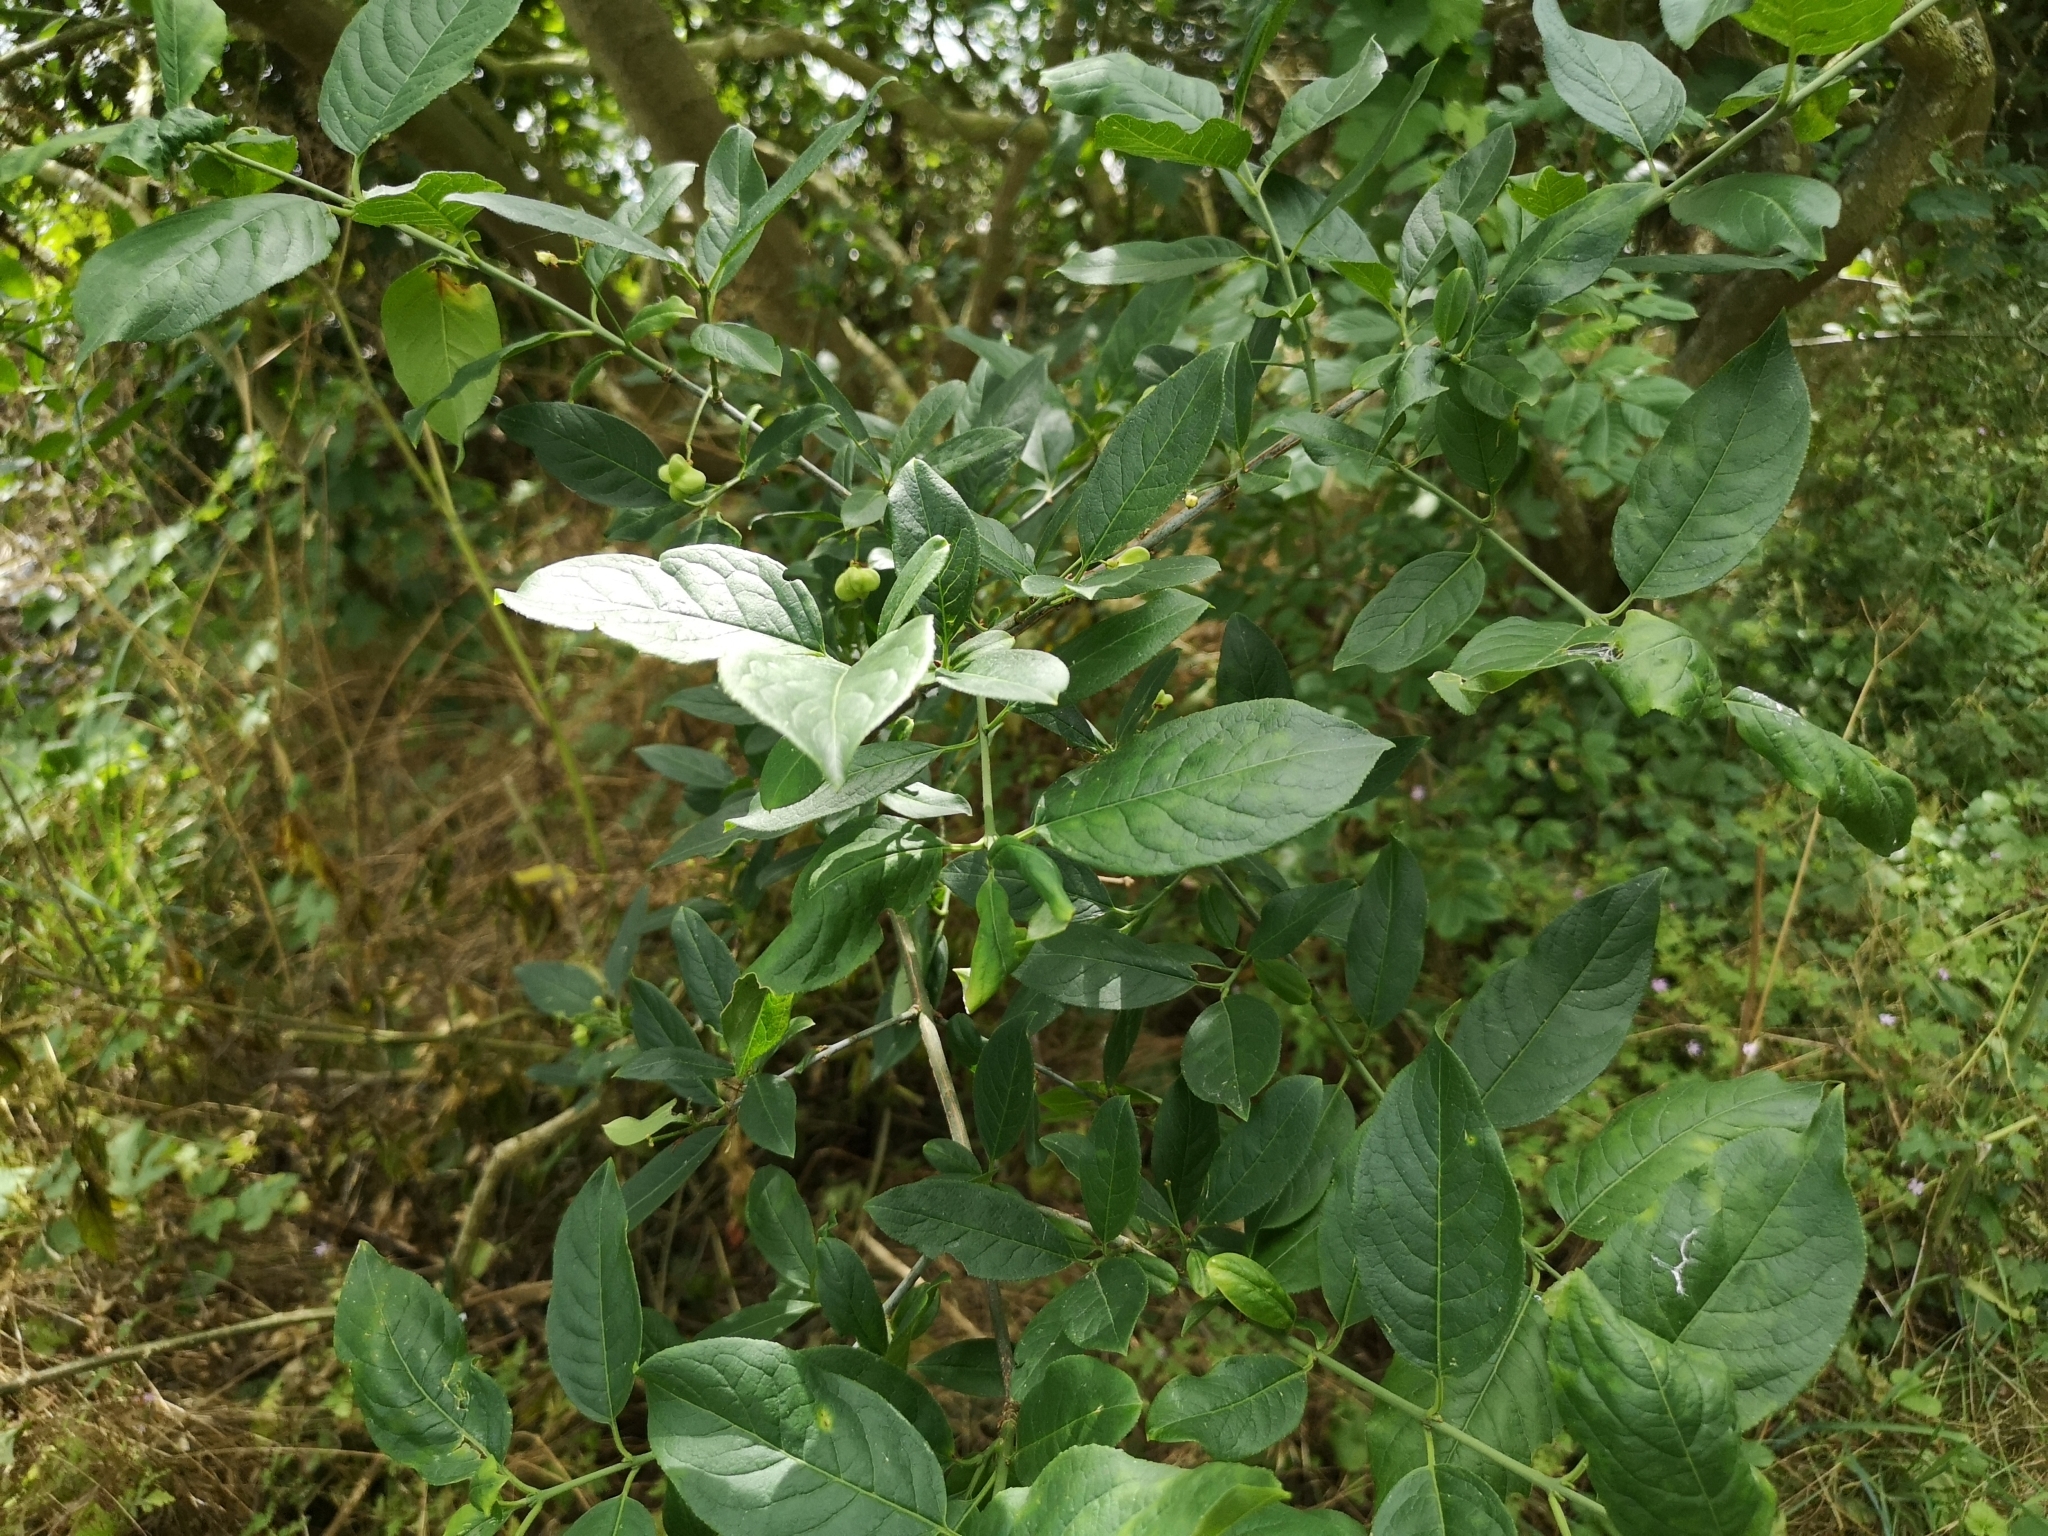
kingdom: Plantae
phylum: Tracheophyta
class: Magnoliopsida
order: Celastrales
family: Celastraceae
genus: Euonymus
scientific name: Euonymus europaeus
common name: Spindle
